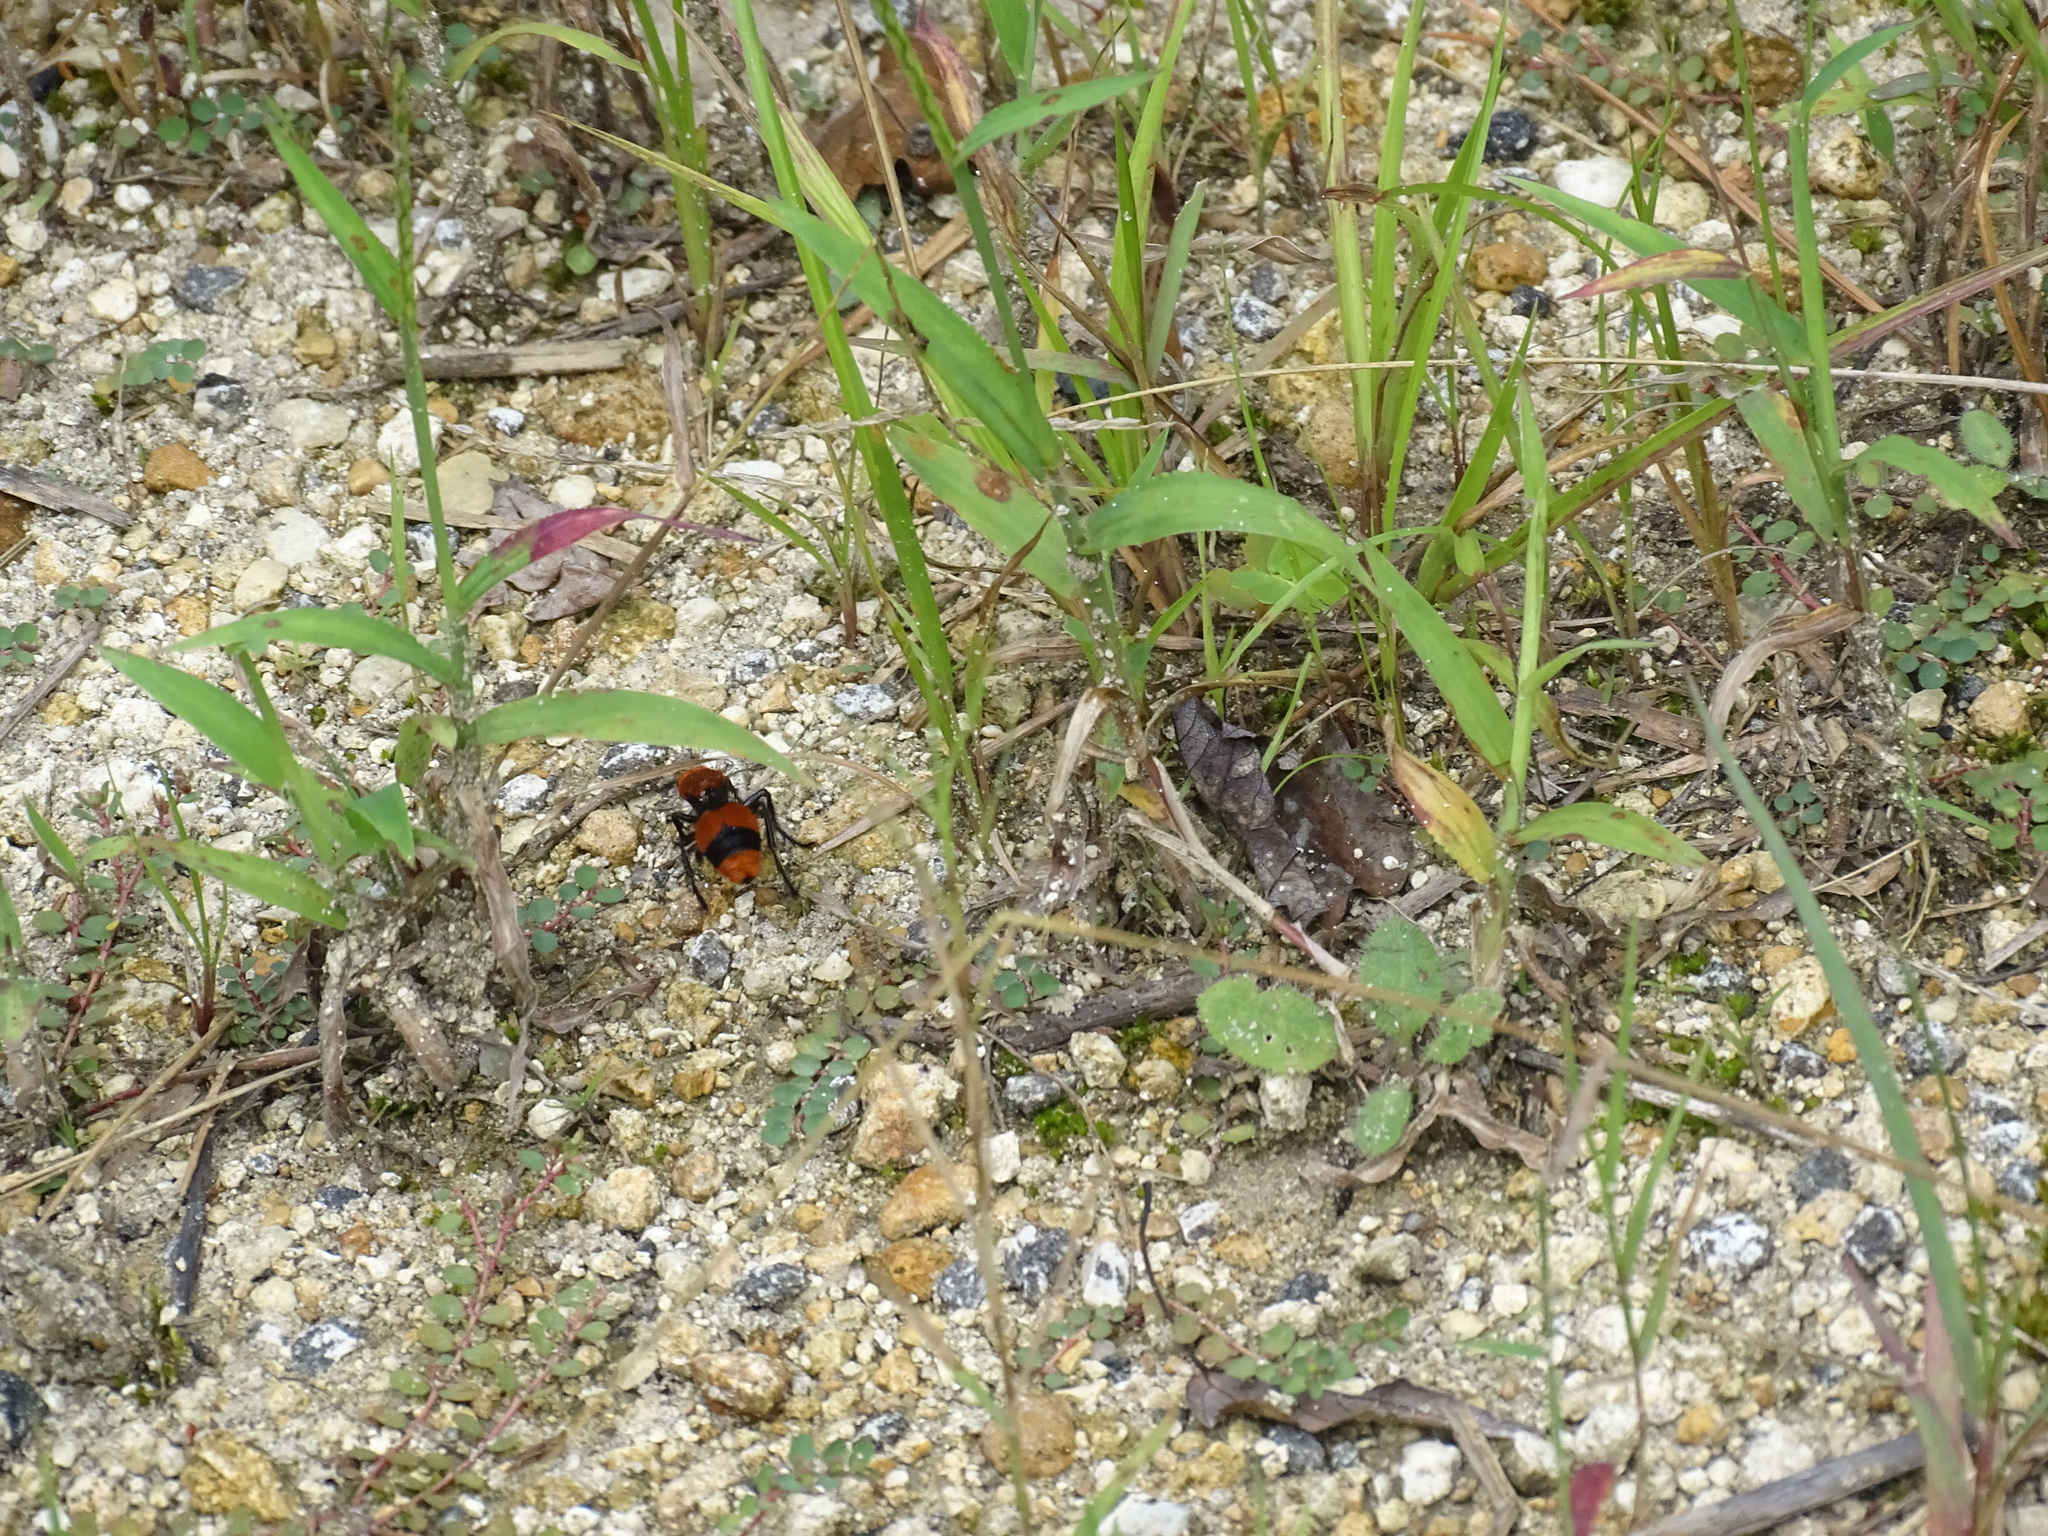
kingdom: Animalia
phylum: Arthropoda
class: Insecta
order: Hymenoptera
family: Mutillidae
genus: Dasymutilla
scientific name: Dasymutilla occidentalis
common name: Common eastern velvet ant
